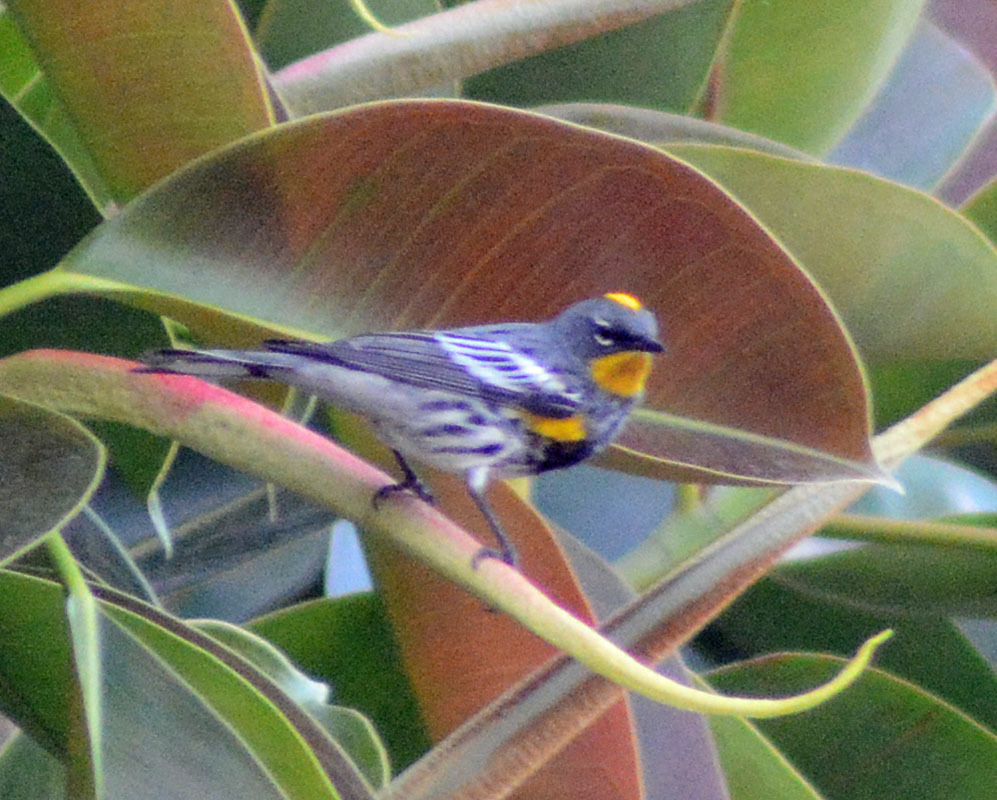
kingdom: Animalia
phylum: Chordata
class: Aves
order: Passeriformes
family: Parulidae
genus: Setophaga
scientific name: Setophaga auduboni
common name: Audubon's warbler
